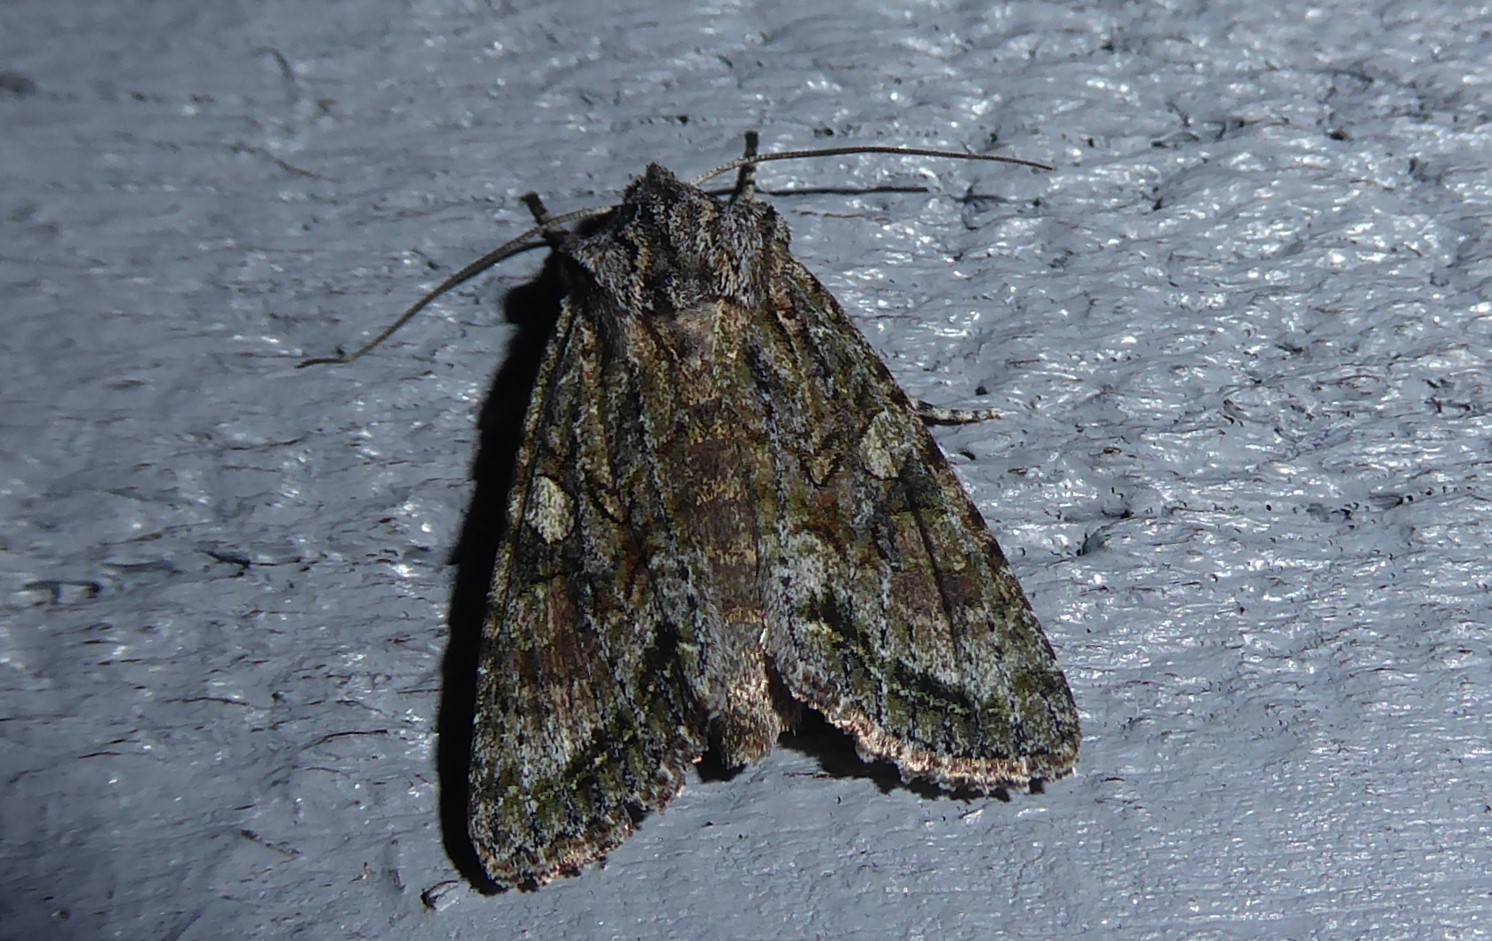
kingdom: Animalia
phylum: Arthropoda
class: Insecta
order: Lepidoptera
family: Noctuidae
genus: Ichneutica
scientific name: Ichneutica mutans
